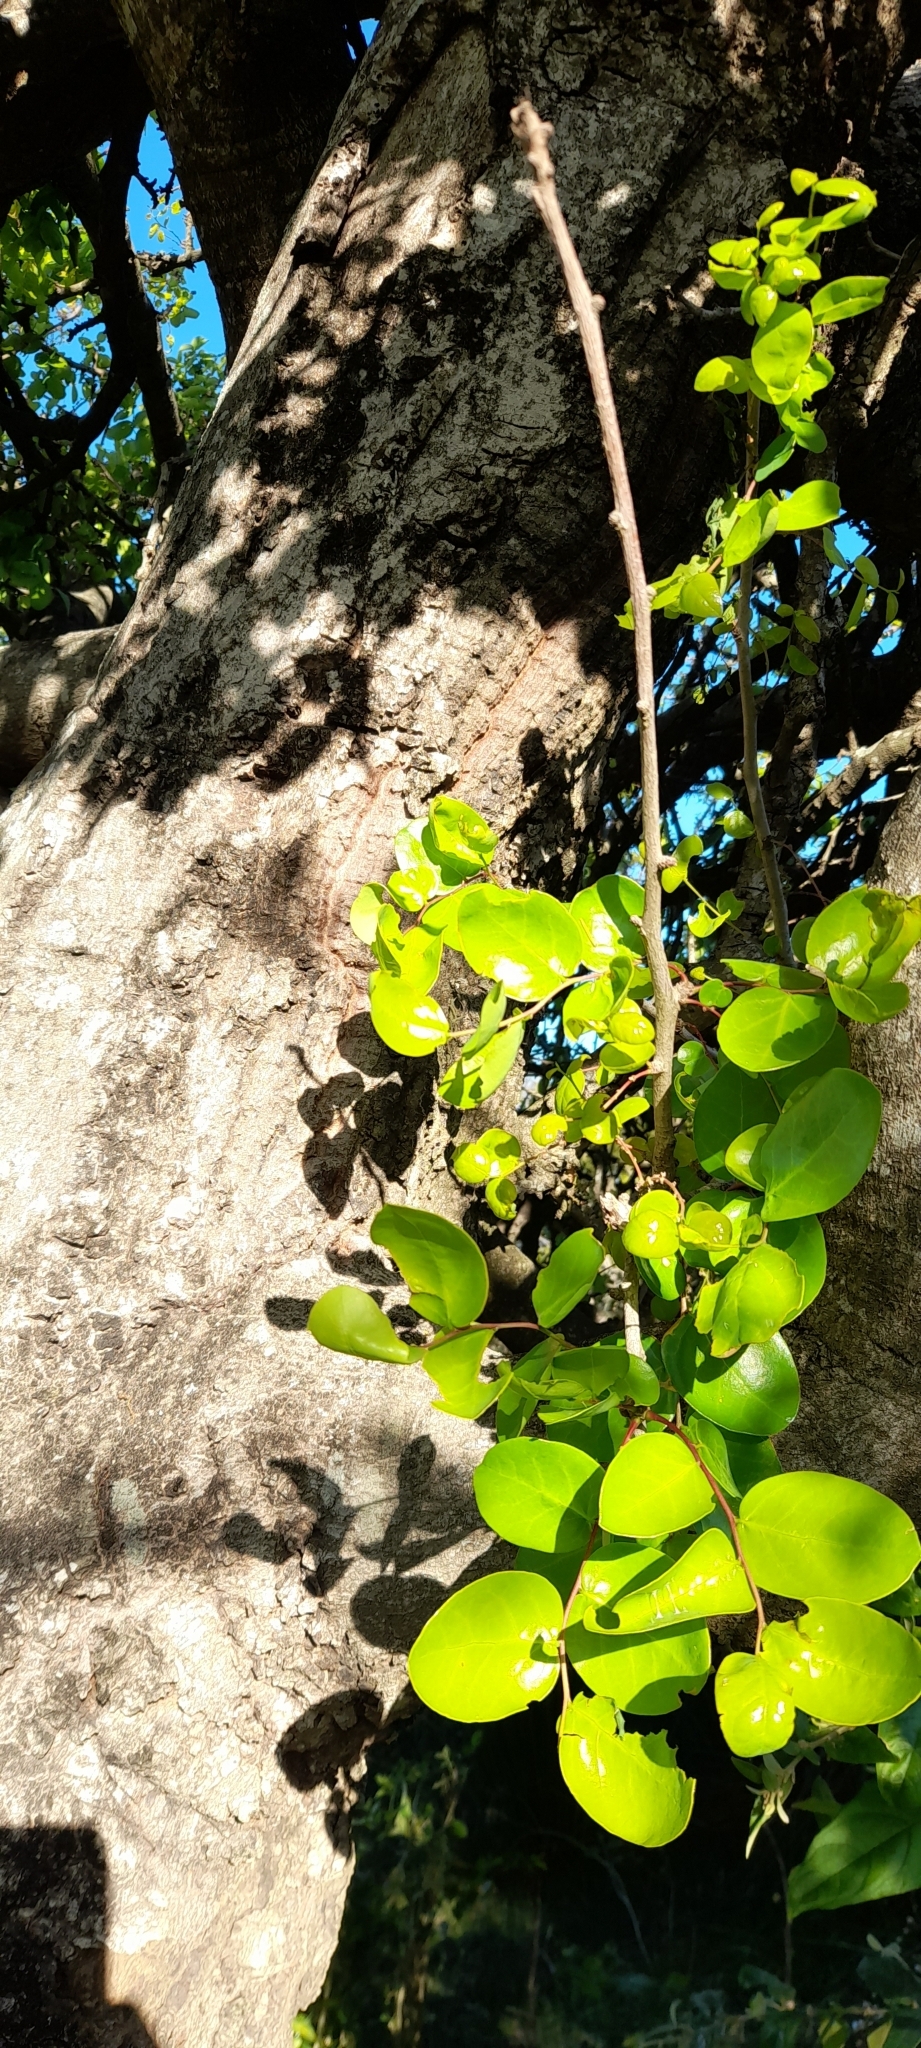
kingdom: Plantae
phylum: Tracheophyta
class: Magnoliopsida
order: Malpighiales
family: Phyllanthaceae
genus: Phyllanthus
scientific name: Phyllanthus chacoensis
